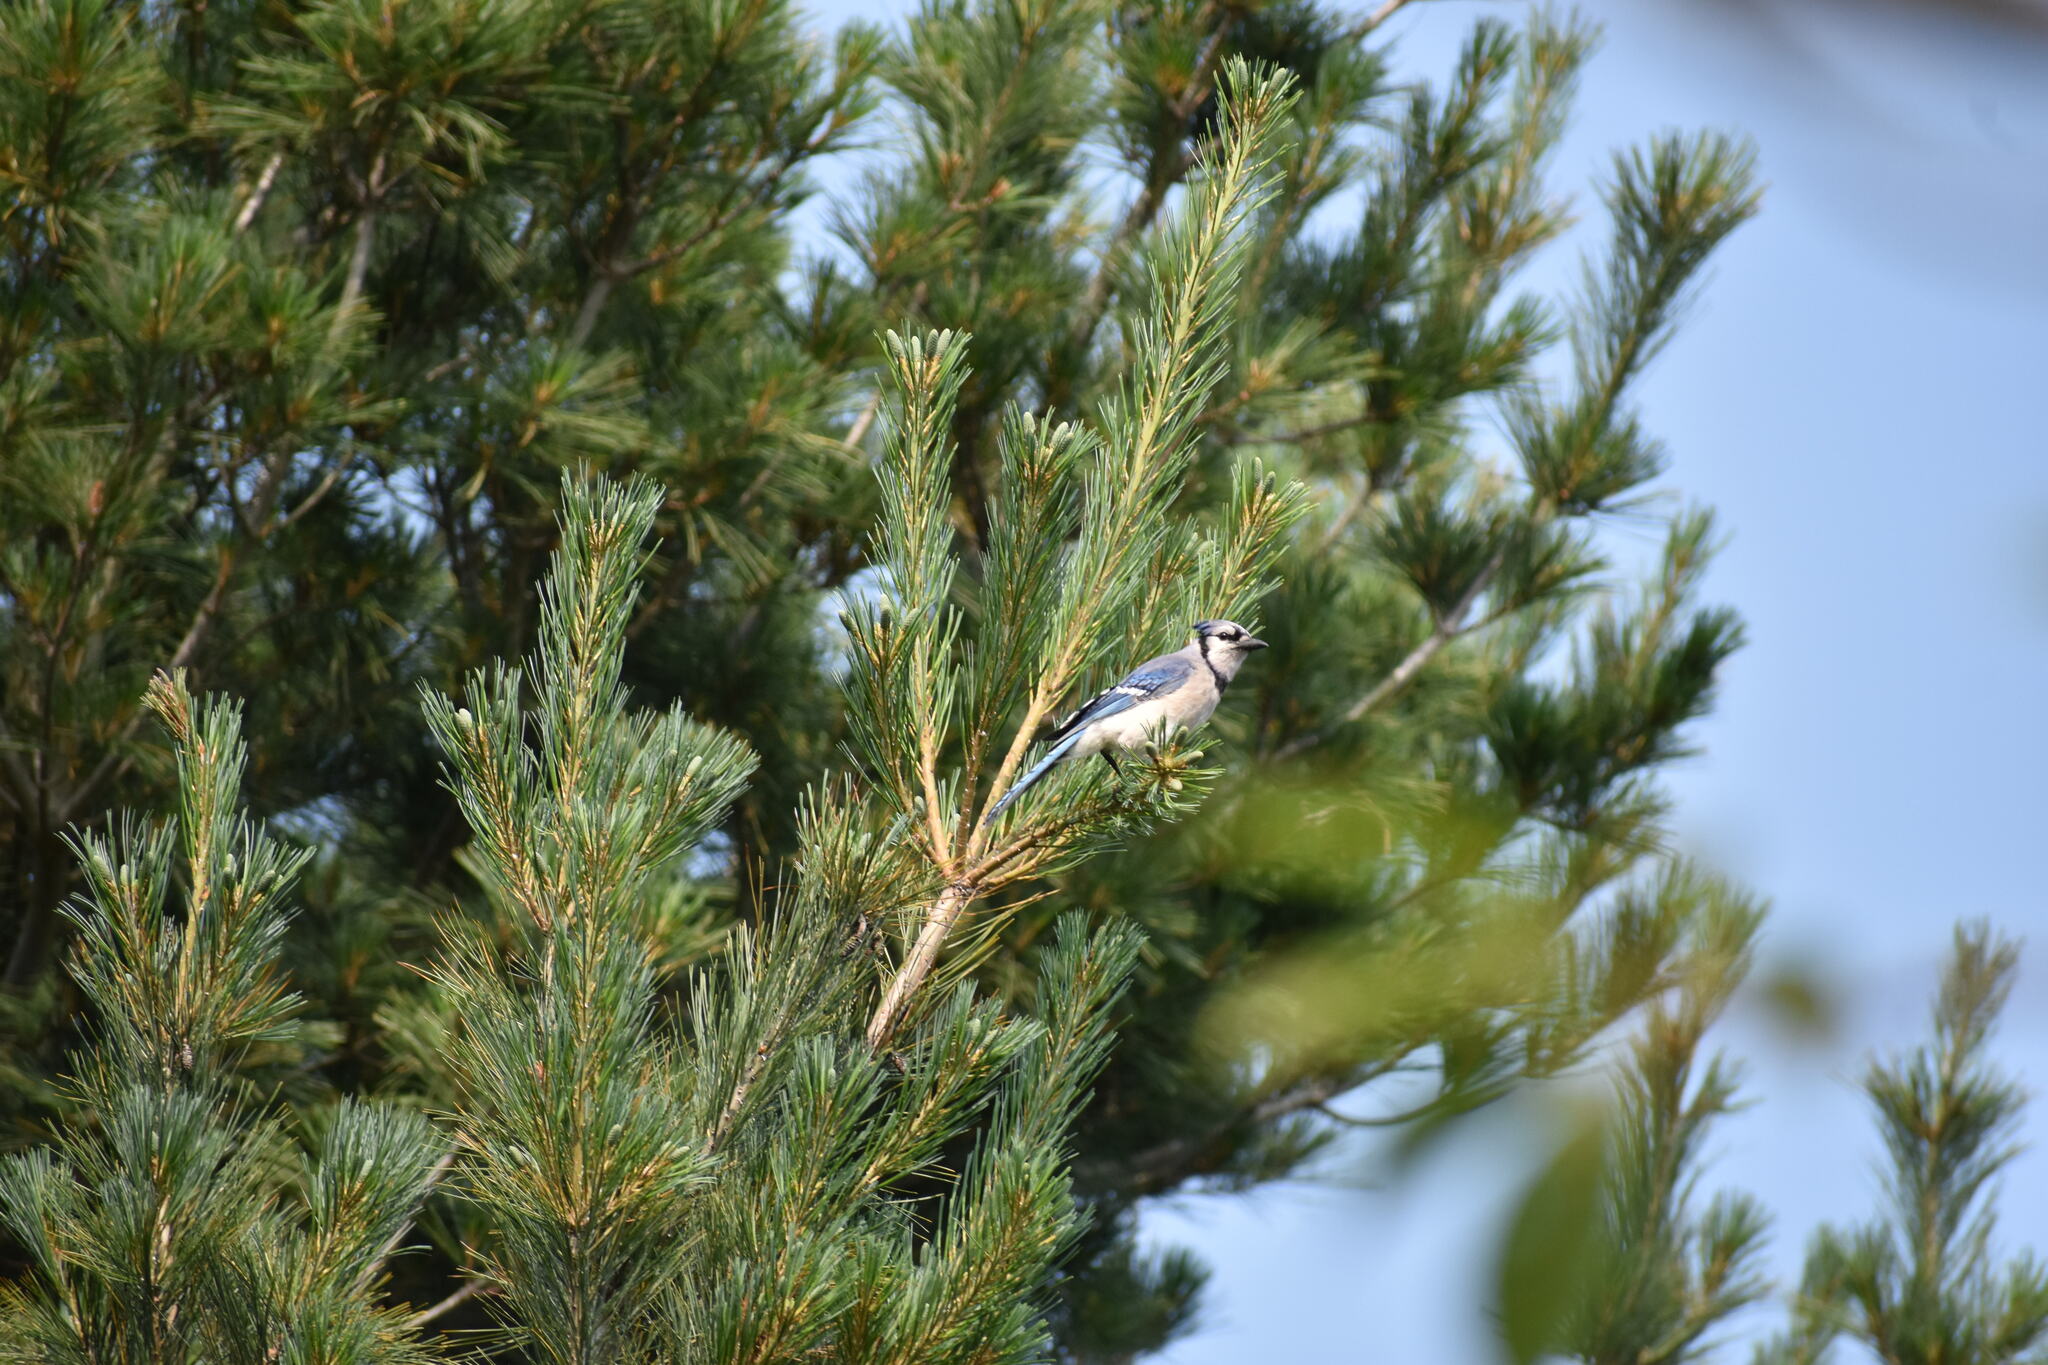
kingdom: Animalia
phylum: Chordata
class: Aves
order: Passeriformes
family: Corvidae
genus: Cyanocitta
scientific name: Cyanocitta cristata
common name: Blue jay
